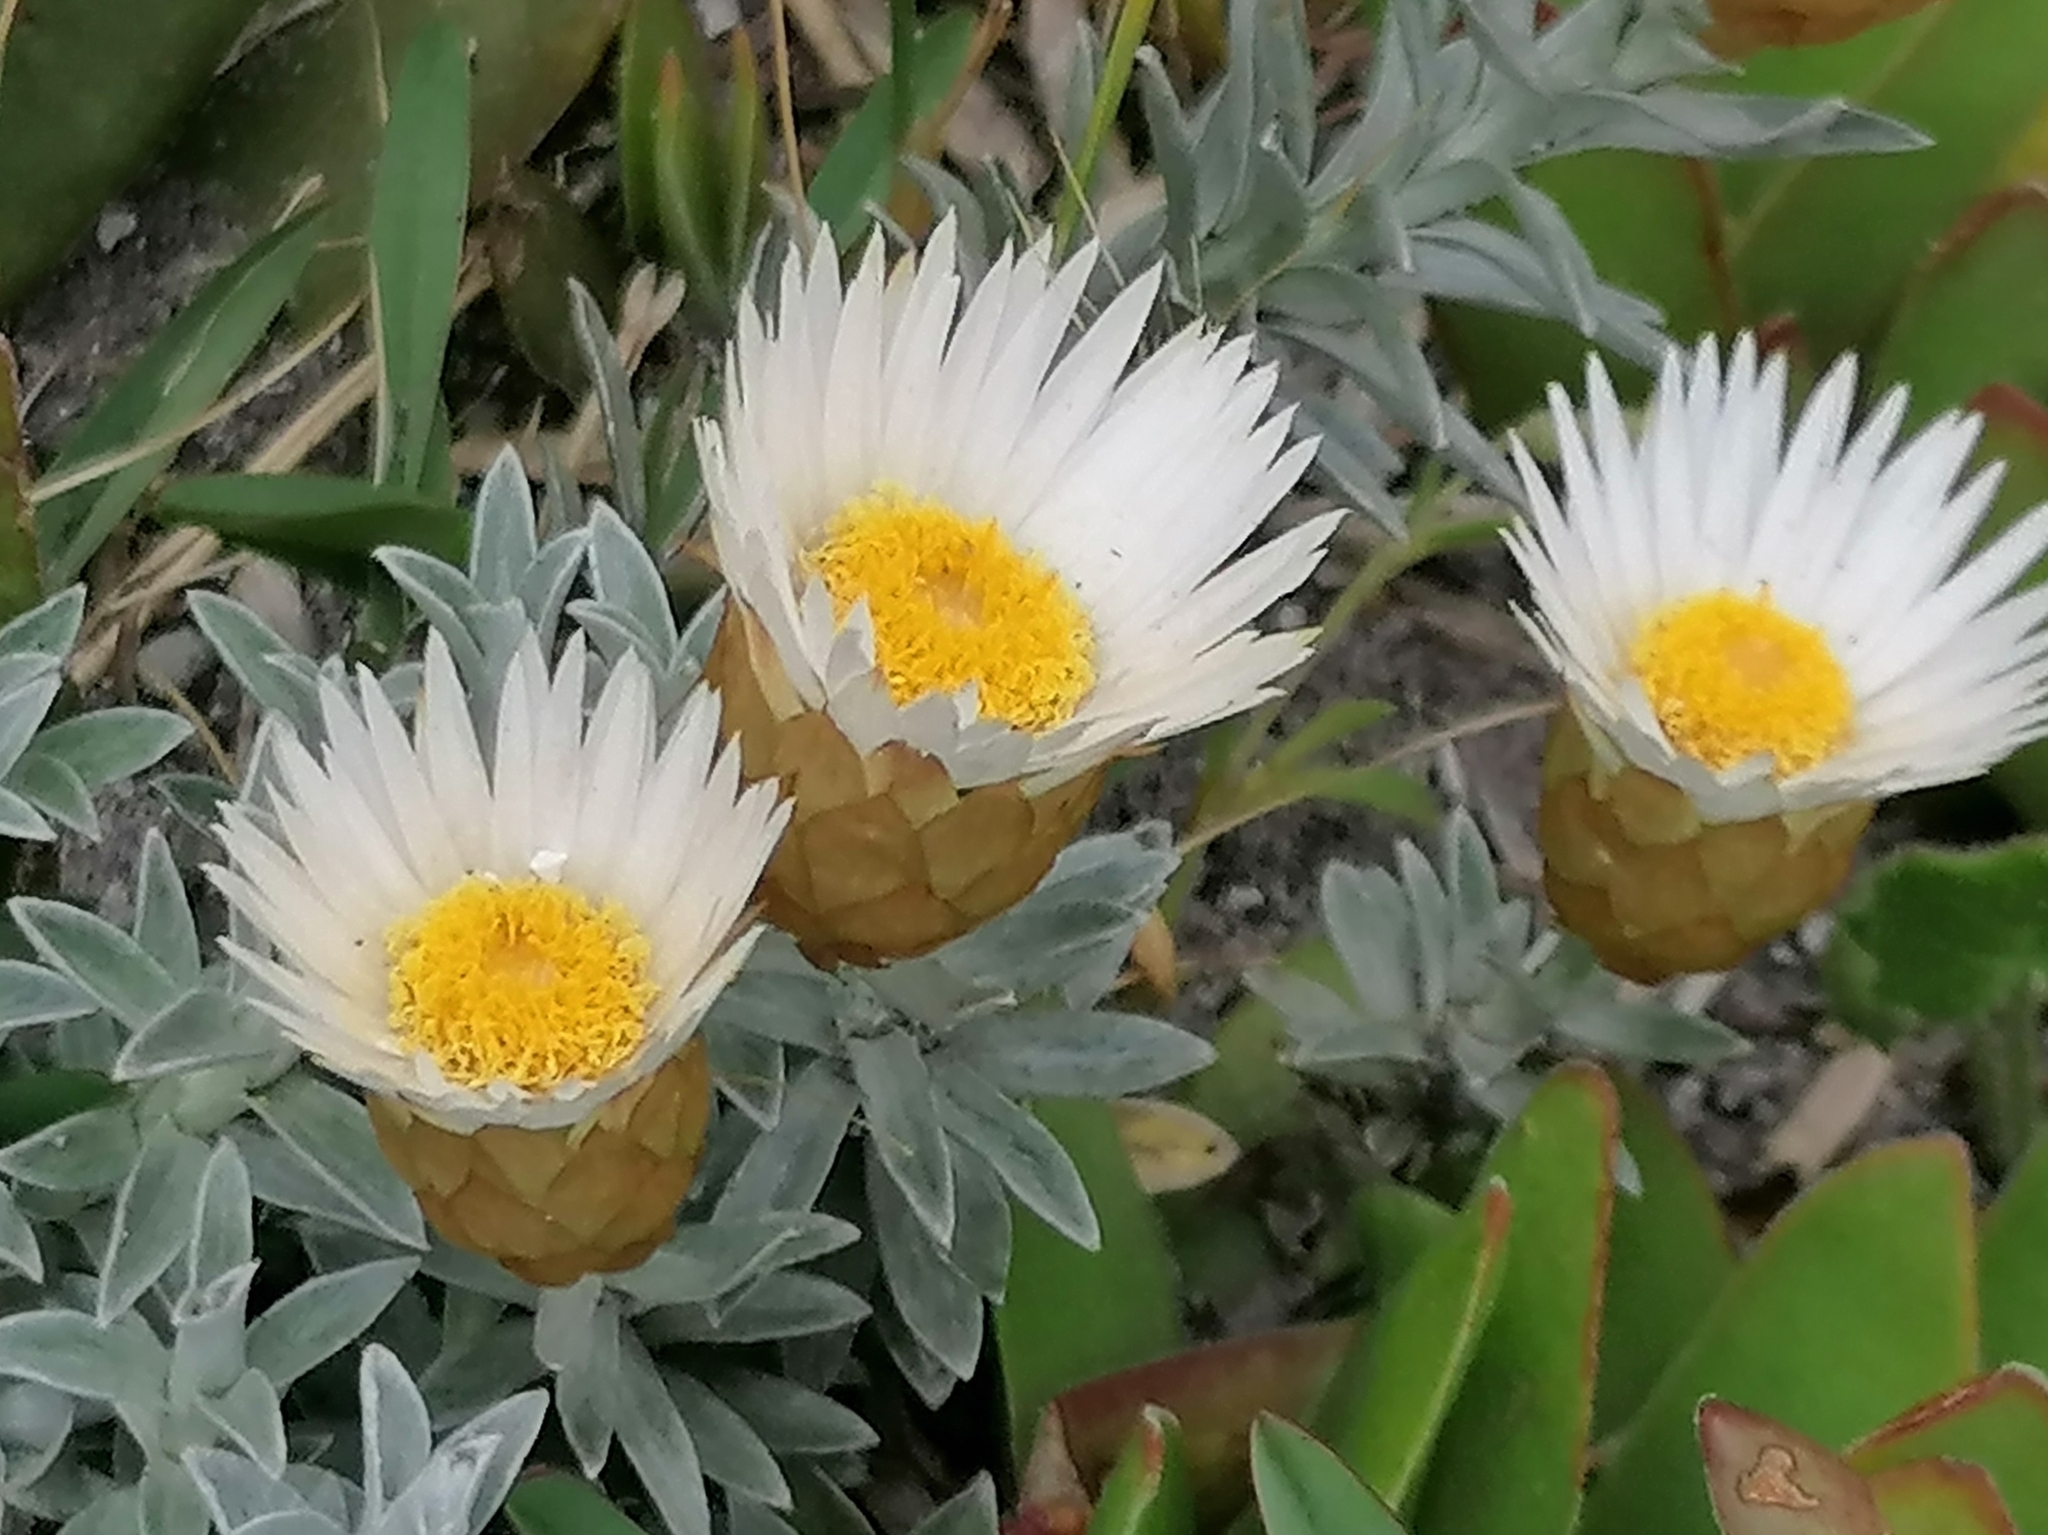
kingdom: Plantae
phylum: Tracheophyta
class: Magnoliopsida
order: Asterales
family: Asteraceae
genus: Helichrysum
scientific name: Helichrysum retortum
